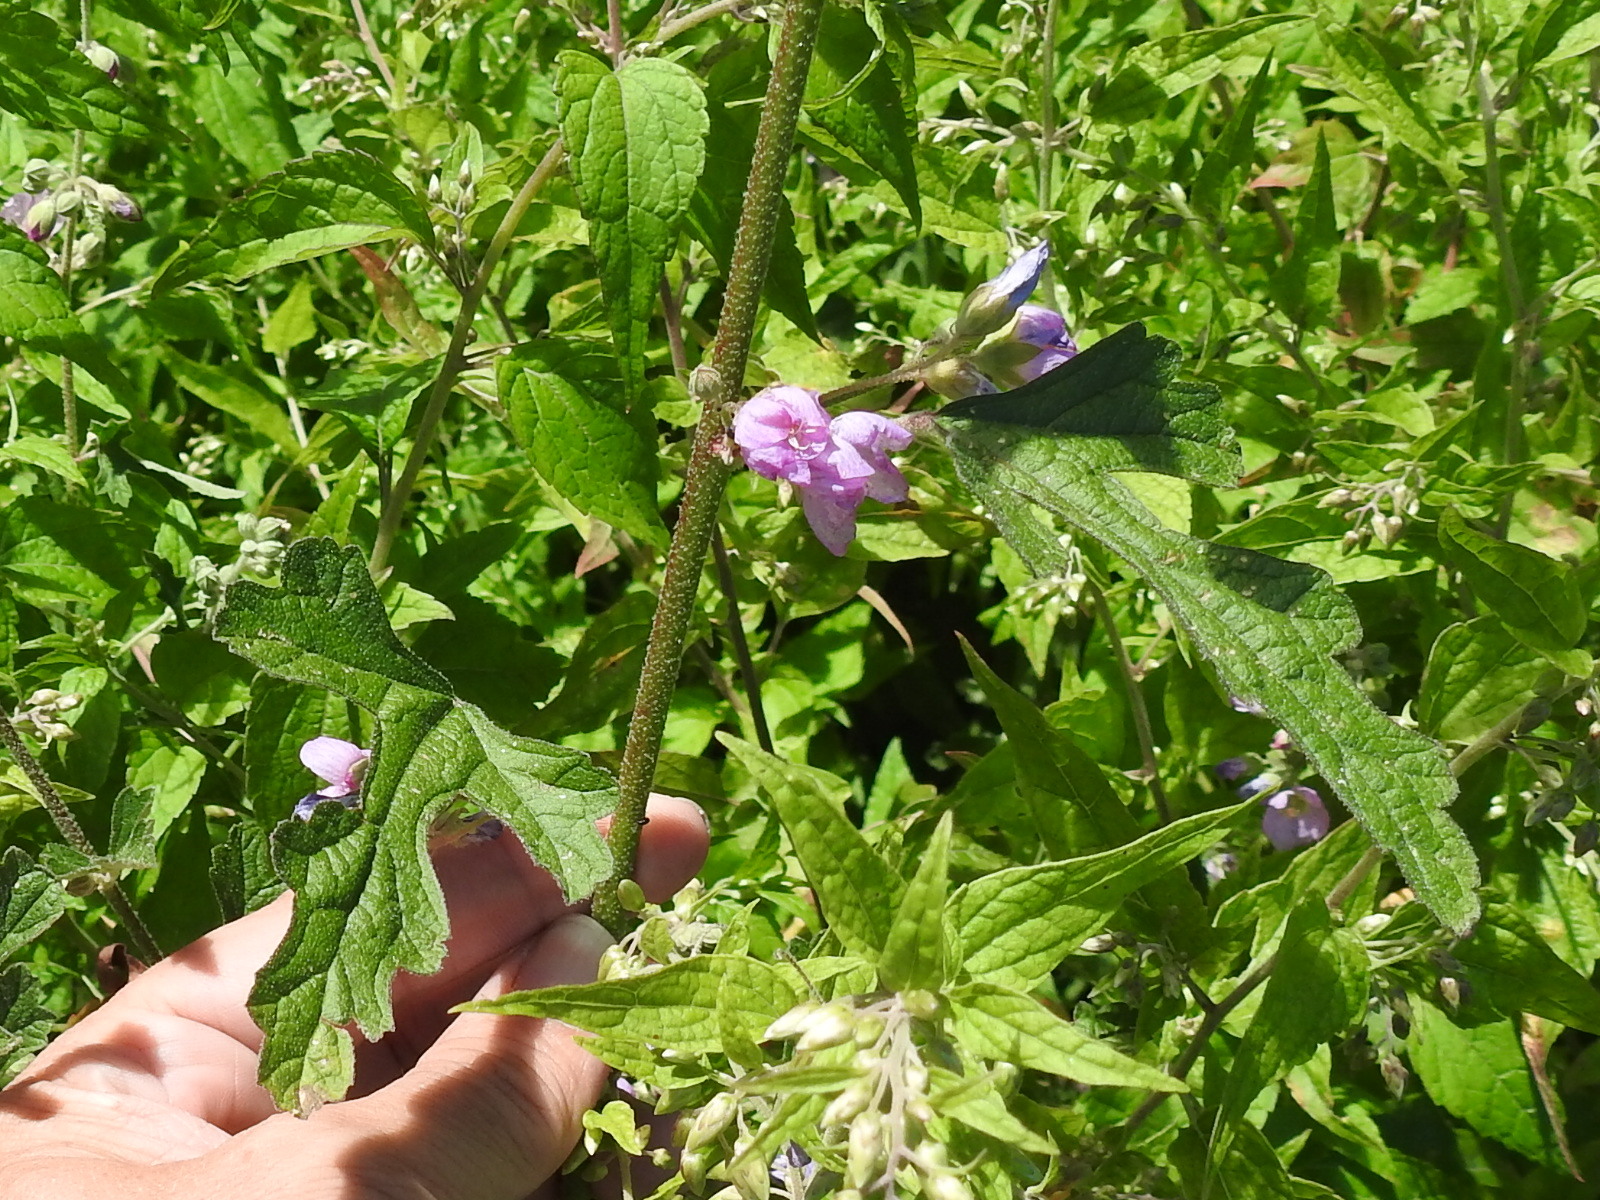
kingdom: Plantae
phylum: Tracheophyta
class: Magnoliopsida
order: Malvales
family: Malvaceae
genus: Sphaeralcea
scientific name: Sphaeralcea fendleri
